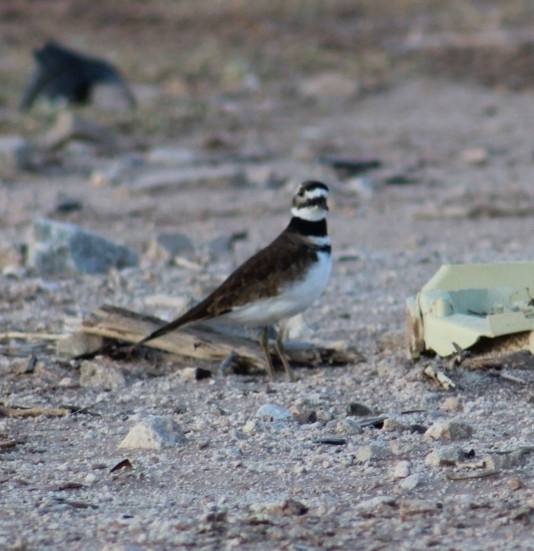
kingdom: Animalia
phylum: Chordata
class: Aves
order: Charadriiformes
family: Charadriidae
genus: Charadrius
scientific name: Charadrius vociferus
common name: Killdeer
